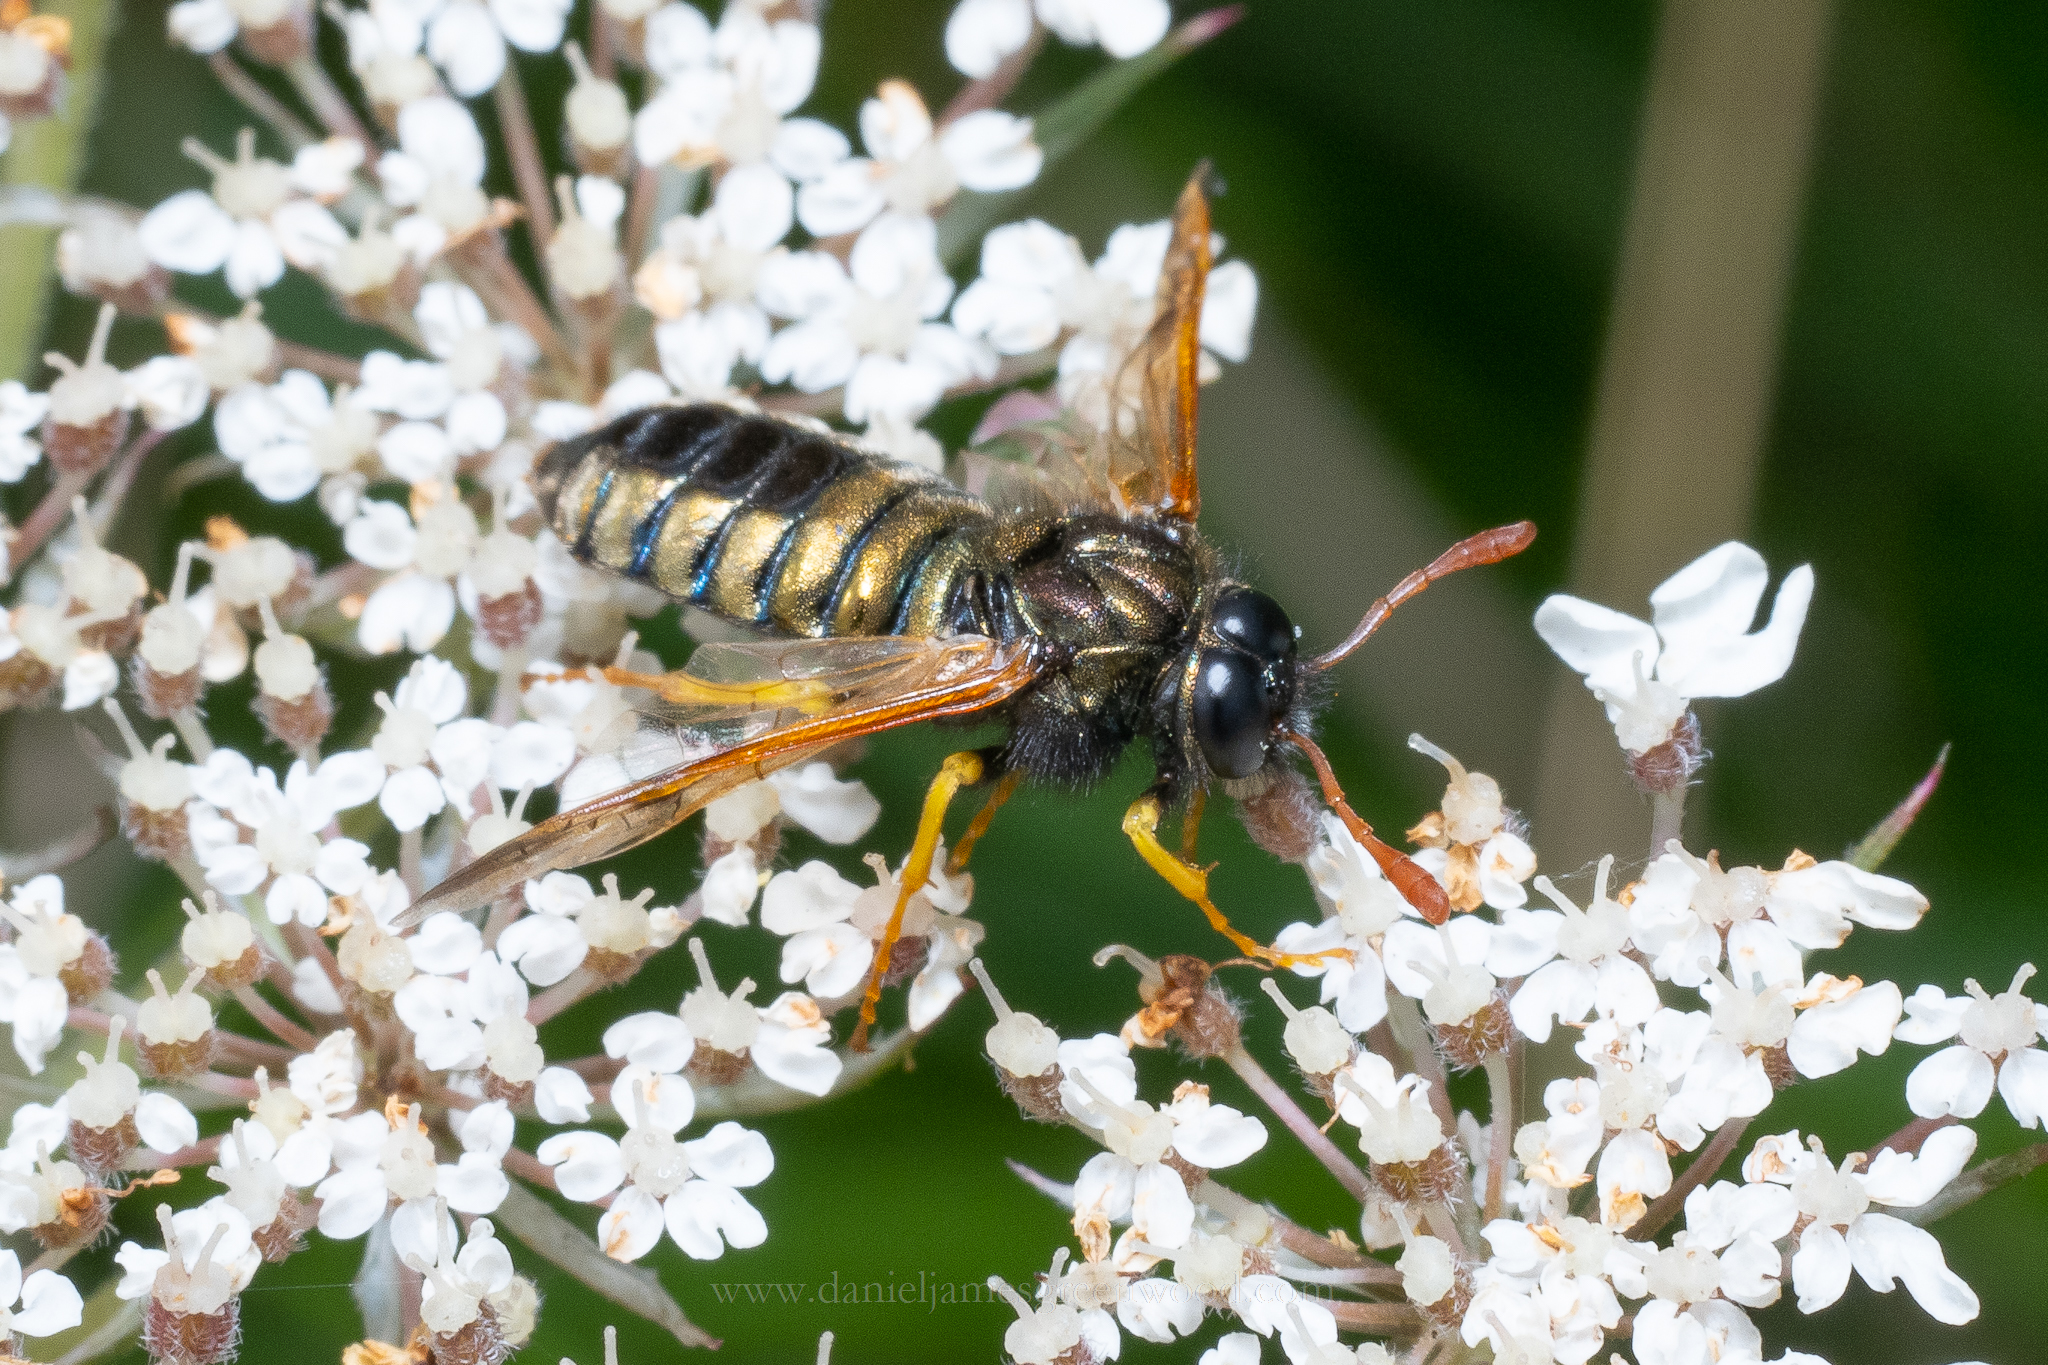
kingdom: Animalia
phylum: Arthropoda
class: Insecta
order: Hymenoptera
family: Cimbicidae
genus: Abia
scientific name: Abia nitens
